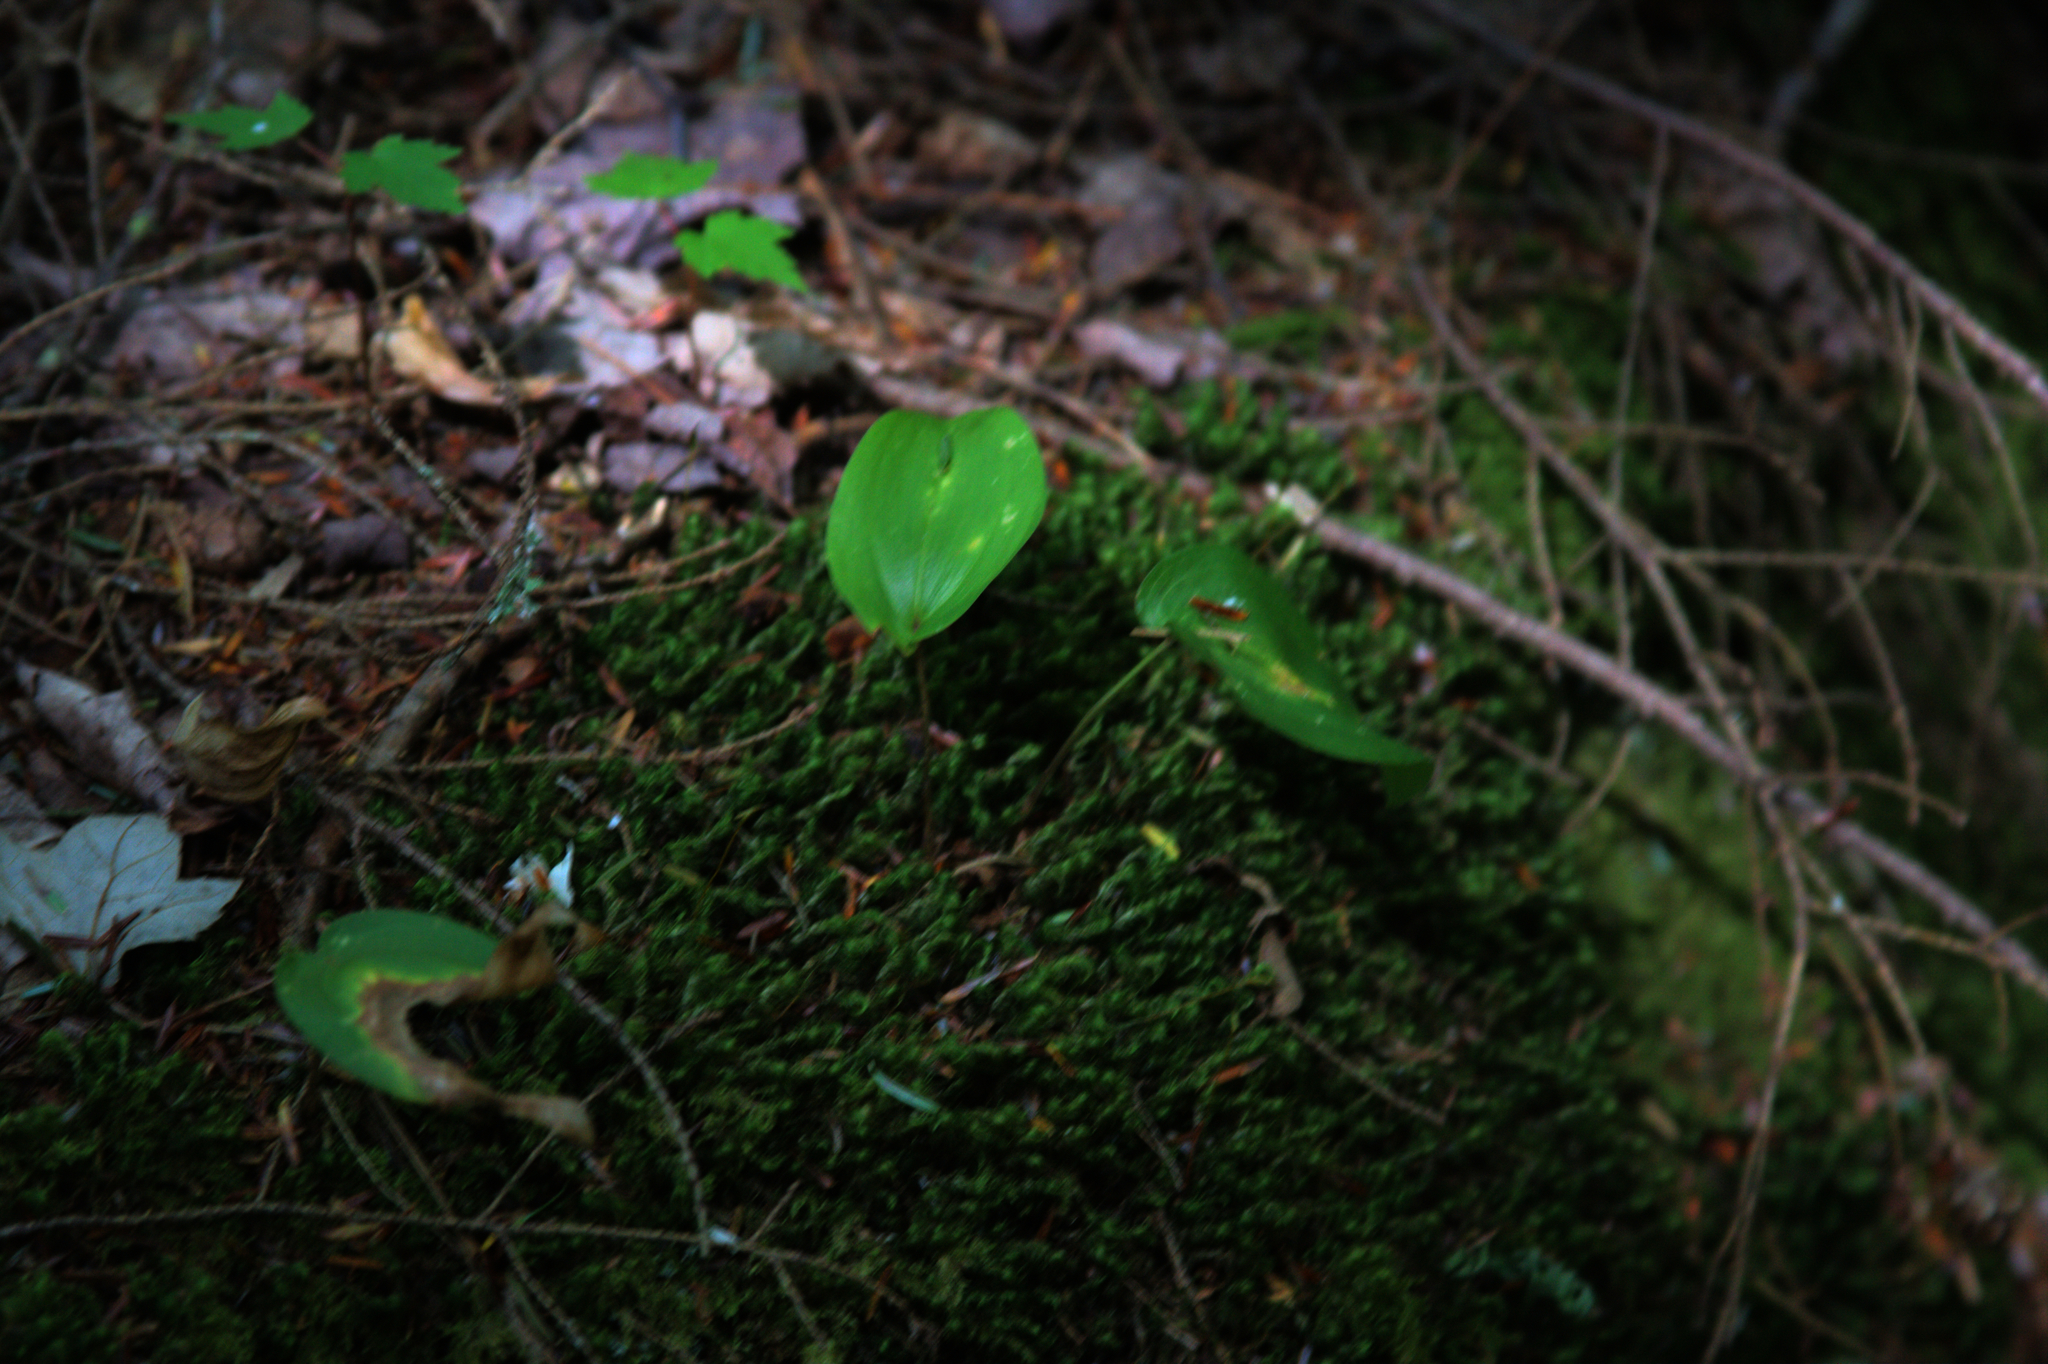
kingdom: Plantae
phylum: Marchantiophyta
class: Jungermanniopsida
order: Jungermanniales
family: Lepidoziaceae
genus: Bazzania
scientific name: Bazzania trilobata
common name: Three-lobed whipwort
